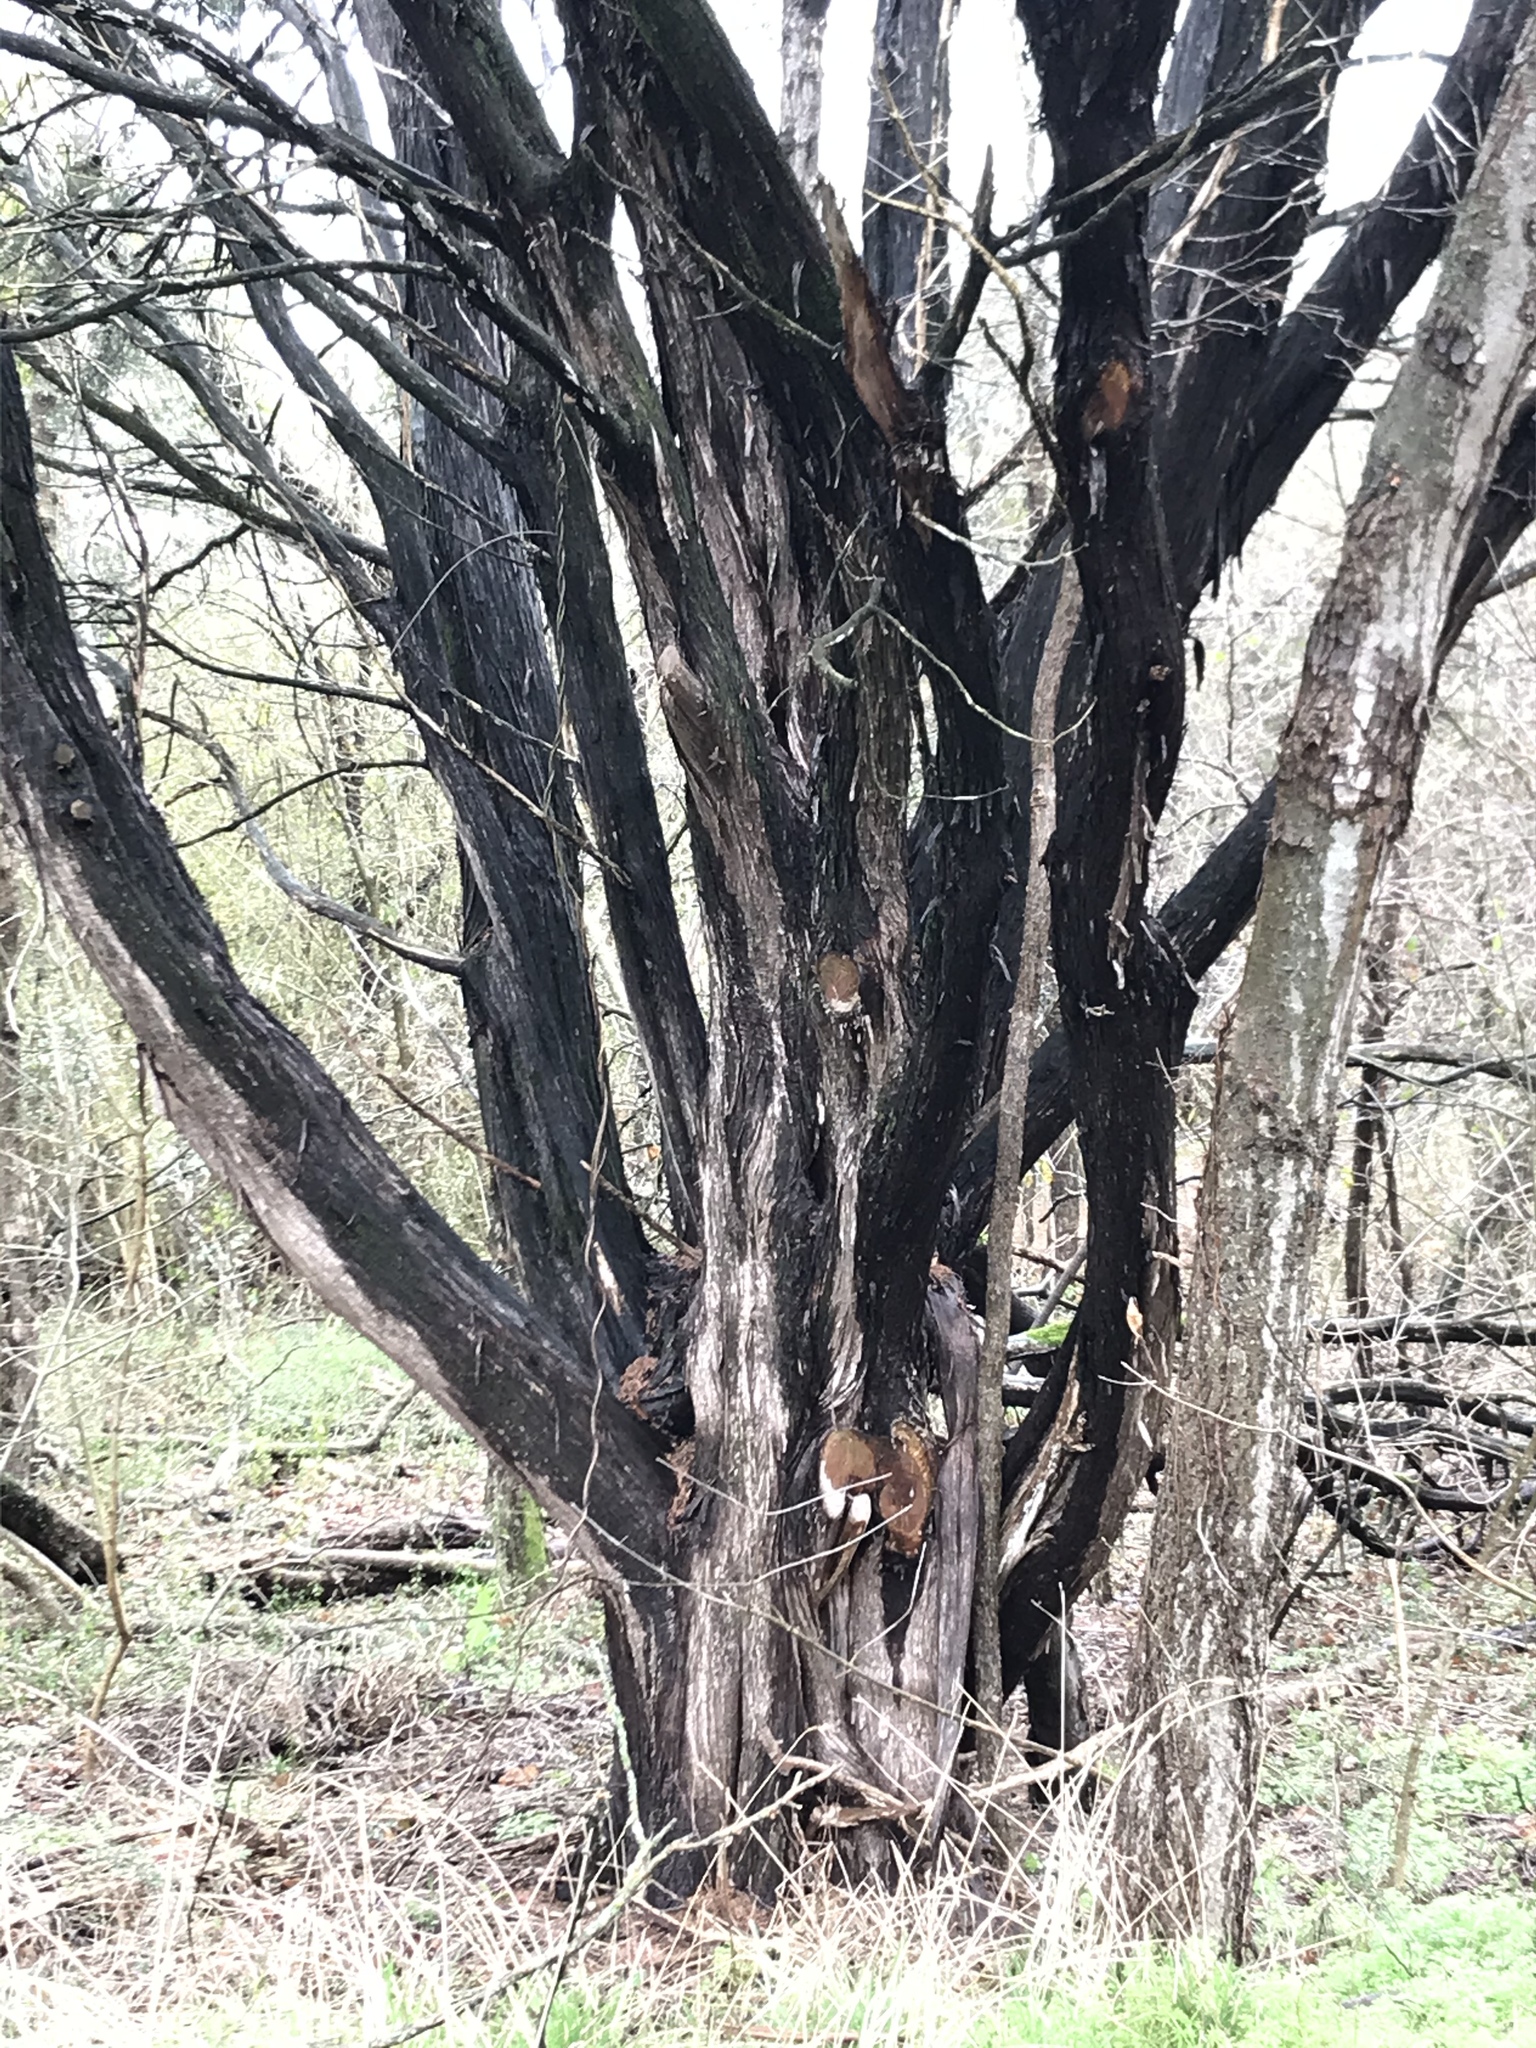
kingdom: Plantae
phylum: Tracheophyta
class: Pinopsida
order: Pinales
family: Cupressaceae
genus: Juniperus
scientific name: Juniperus ashei
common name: Mexican juniper
